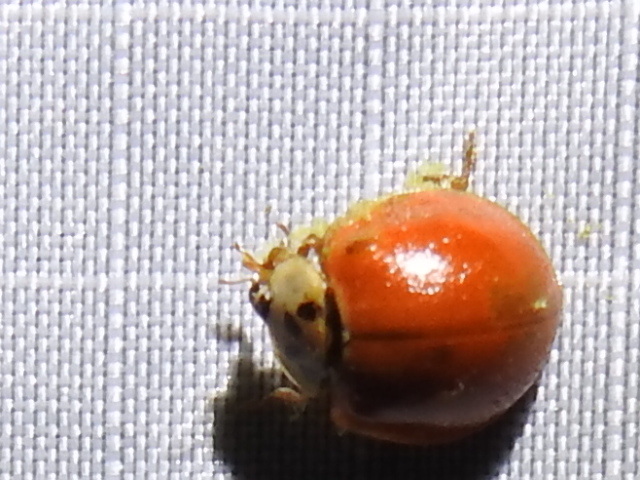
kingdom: Fungi
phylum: Ascomycota
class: Laboulbeniomycetes
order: Laboulbeniales
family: Laboulbeniaceae
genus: Hesperomyces
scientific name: Hesperomyces harmoniae
